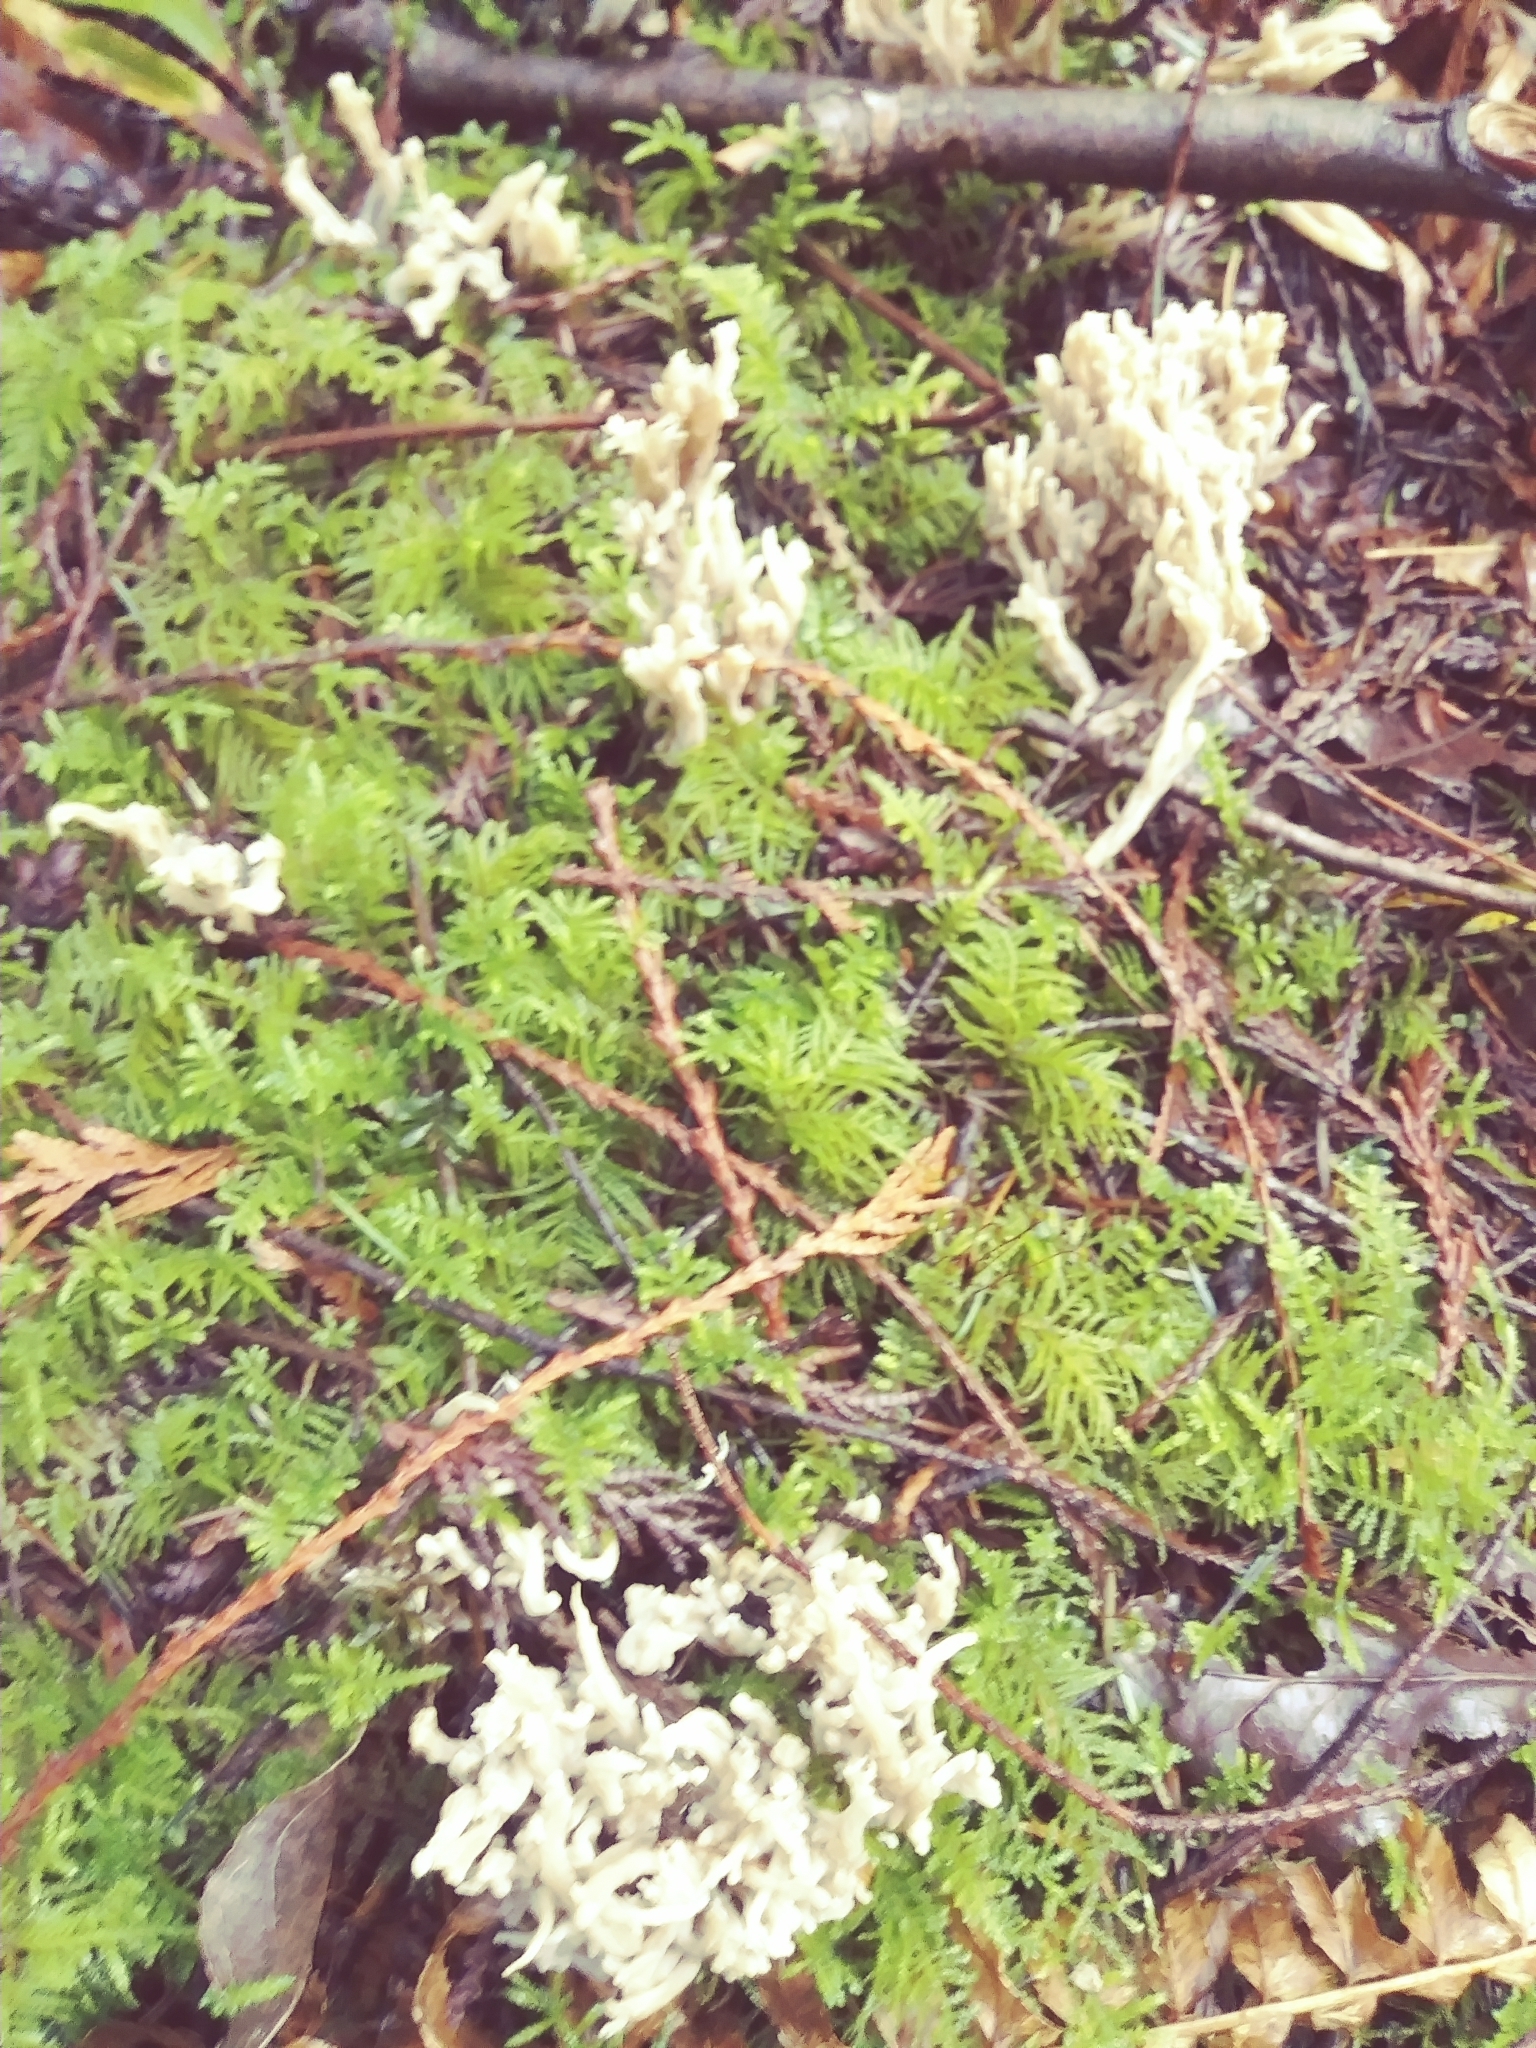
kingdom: Fungi
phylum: Basidiomycota
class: Agaricomycetes
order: Cantharellales
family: Hydnaceae
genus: Clavulina
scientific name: Clavulina rugosa
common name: Wrinkled club
